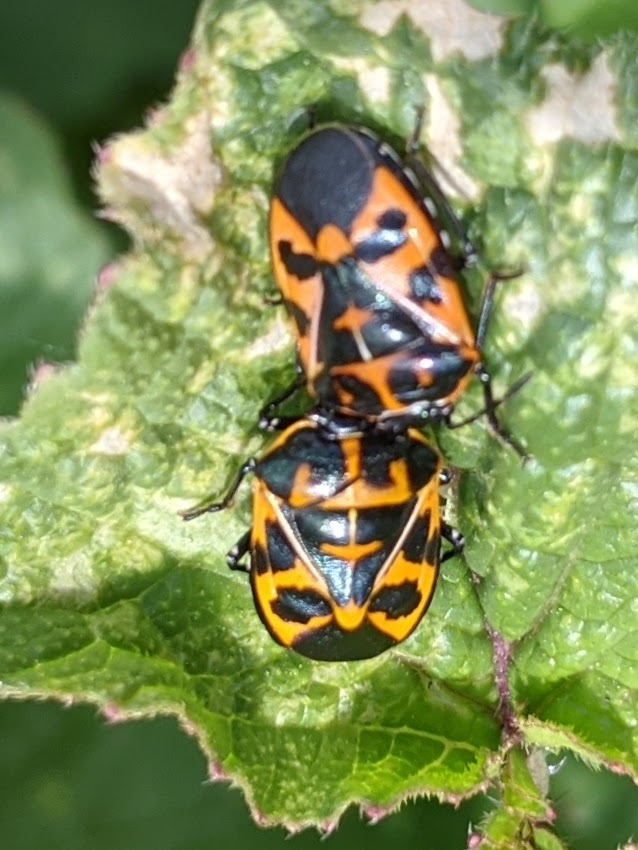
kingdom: Animalia
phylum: Arthropoda
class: Insecta
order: Hemiptera
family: Pentatomidae
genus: Murgantia
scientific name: Murgantia histrionica
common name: Harlequin bug
